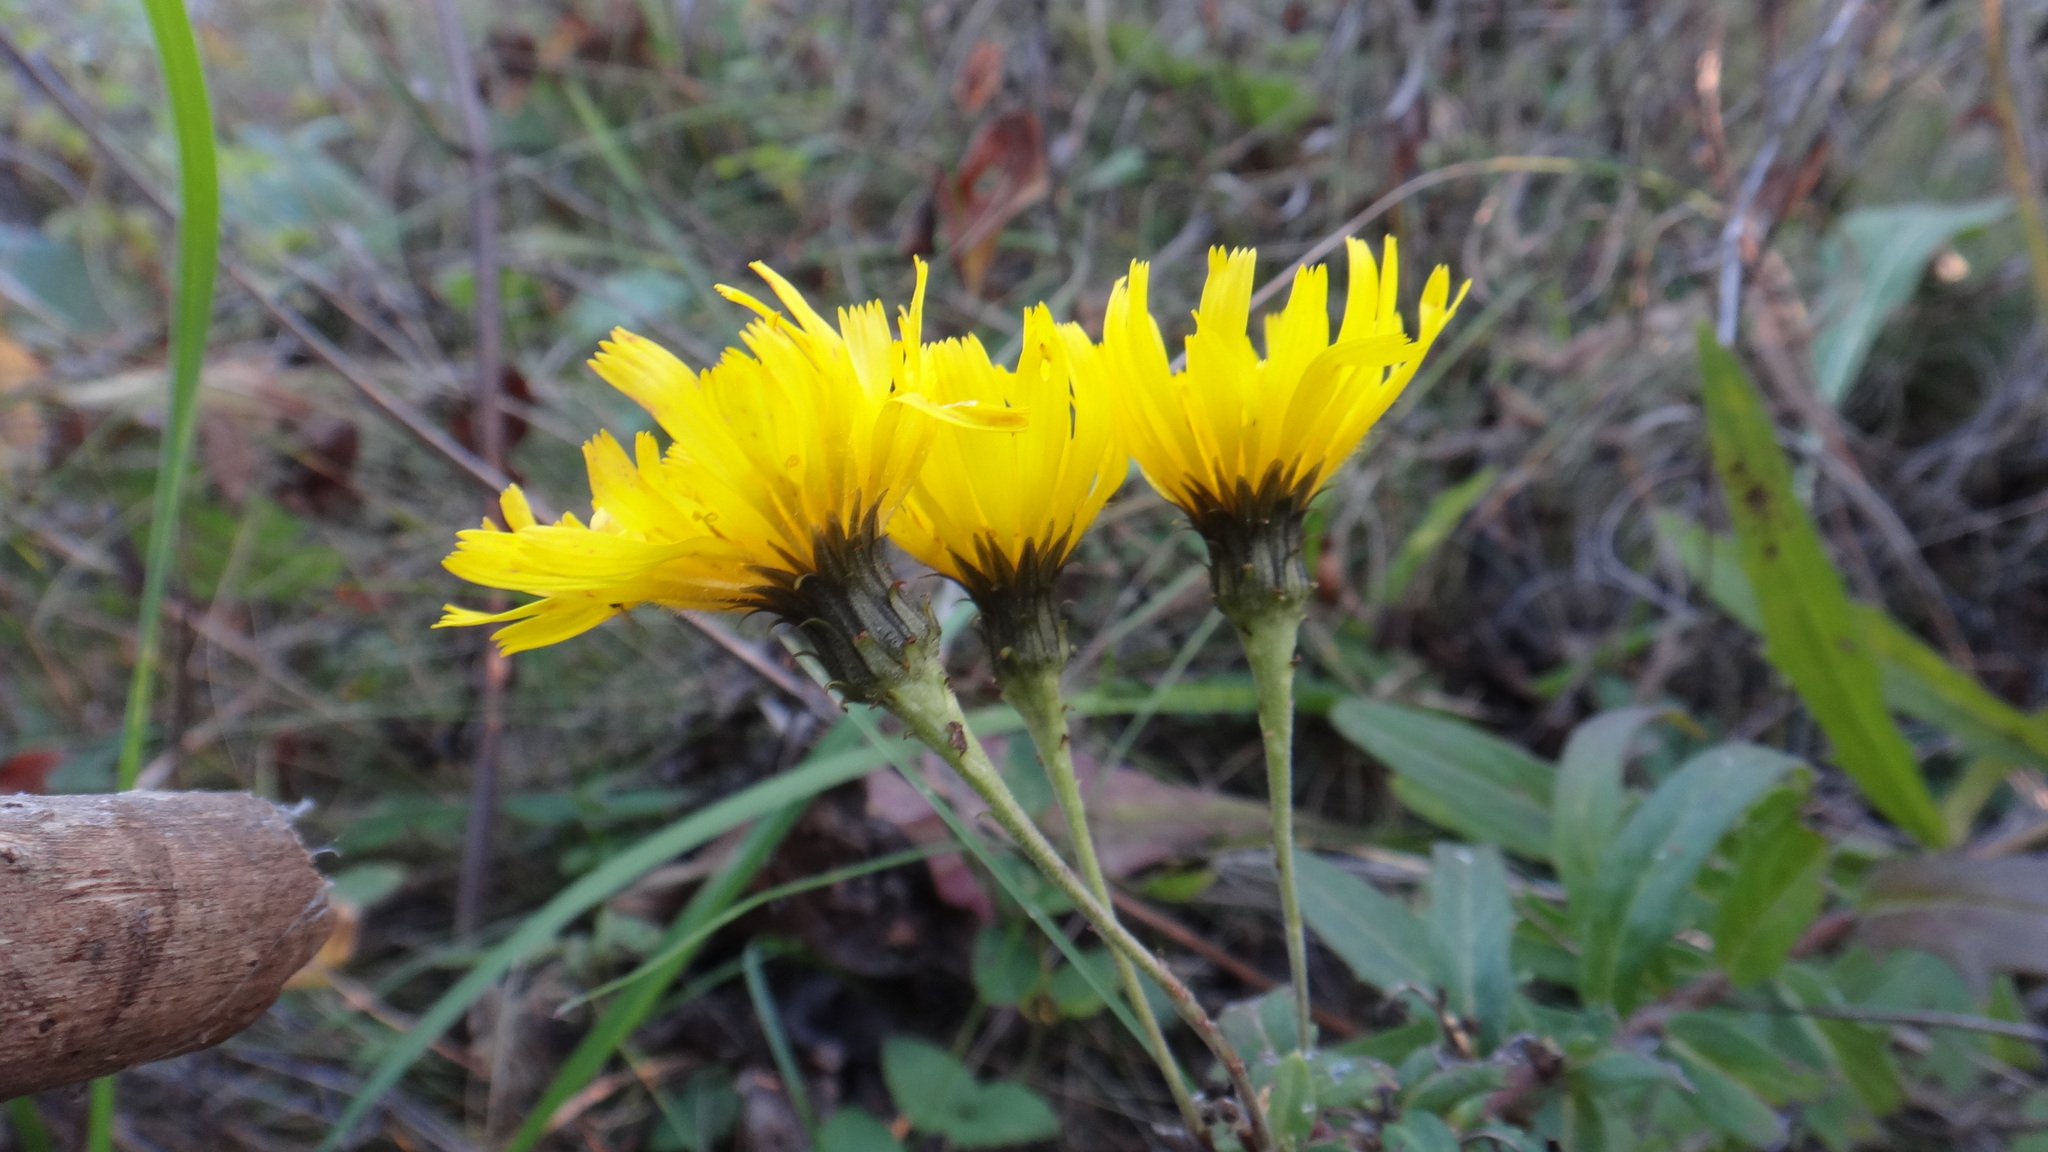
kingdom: Plantae
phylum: Tracheophyta
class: Magnoliopsida
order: Asterales
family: Asteraceae
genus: Hieracium
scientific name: Hieracium umbellatum
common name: Northern hawkweed
